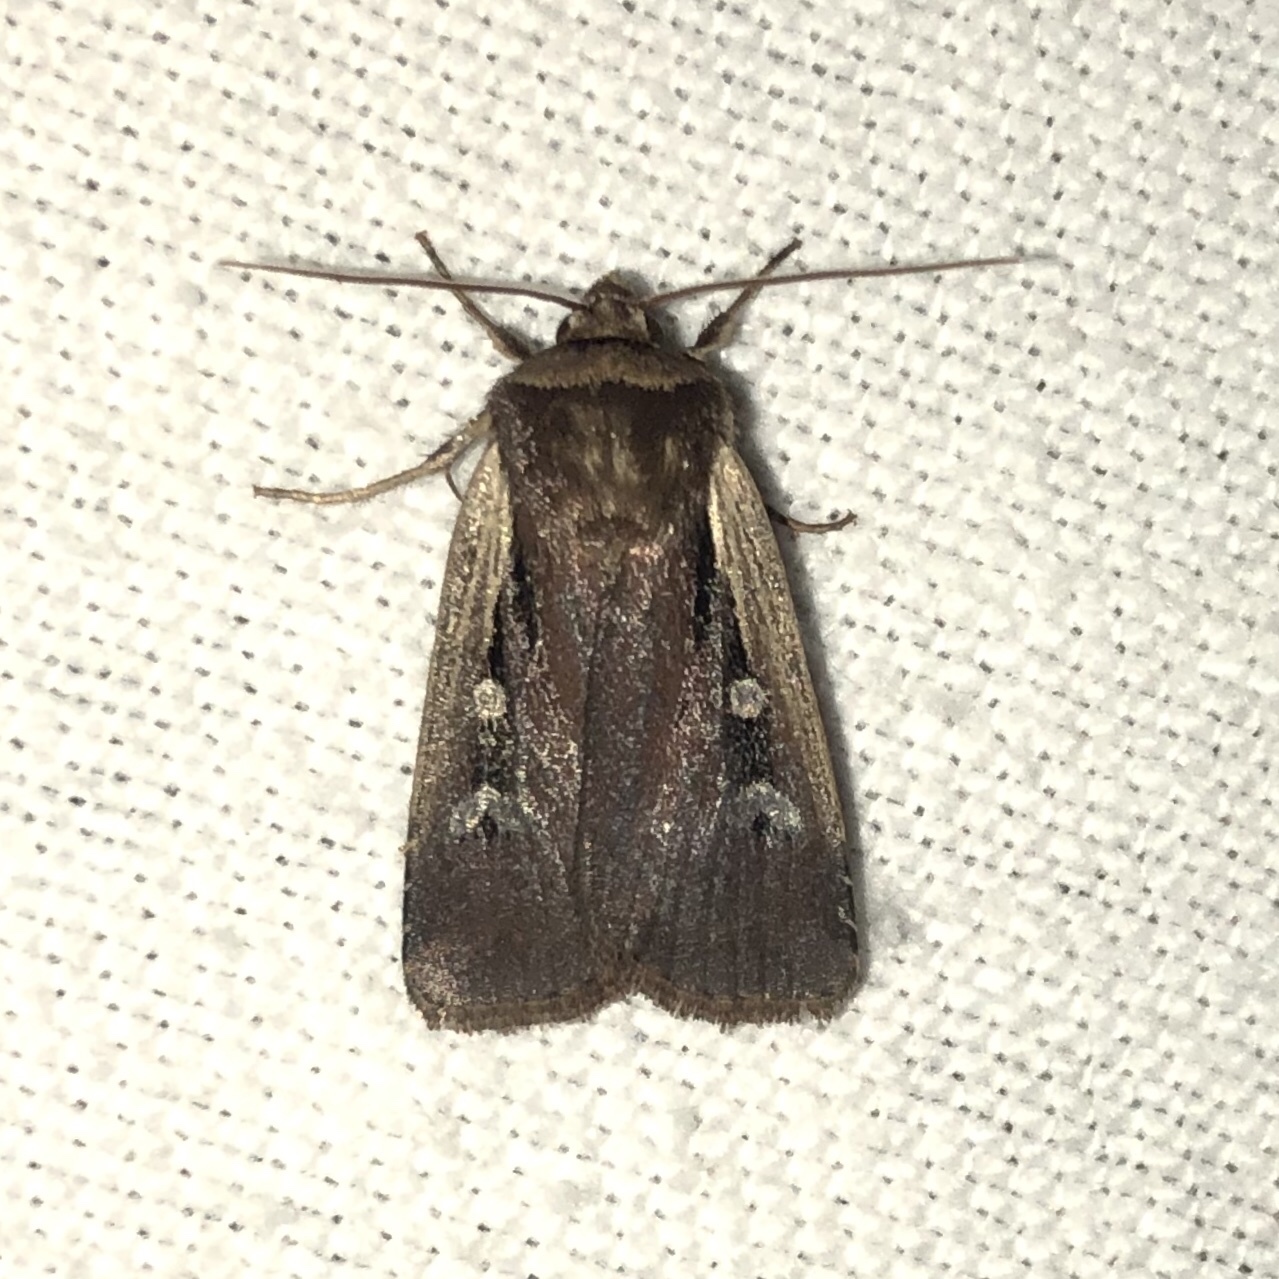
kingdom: Animalia
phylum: Arthropoda
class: Insecta
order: Lepidoptera
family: Noctuidae
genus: Ochropleura
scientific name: Ochropleura implecta
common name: Flame-shouldered dart
